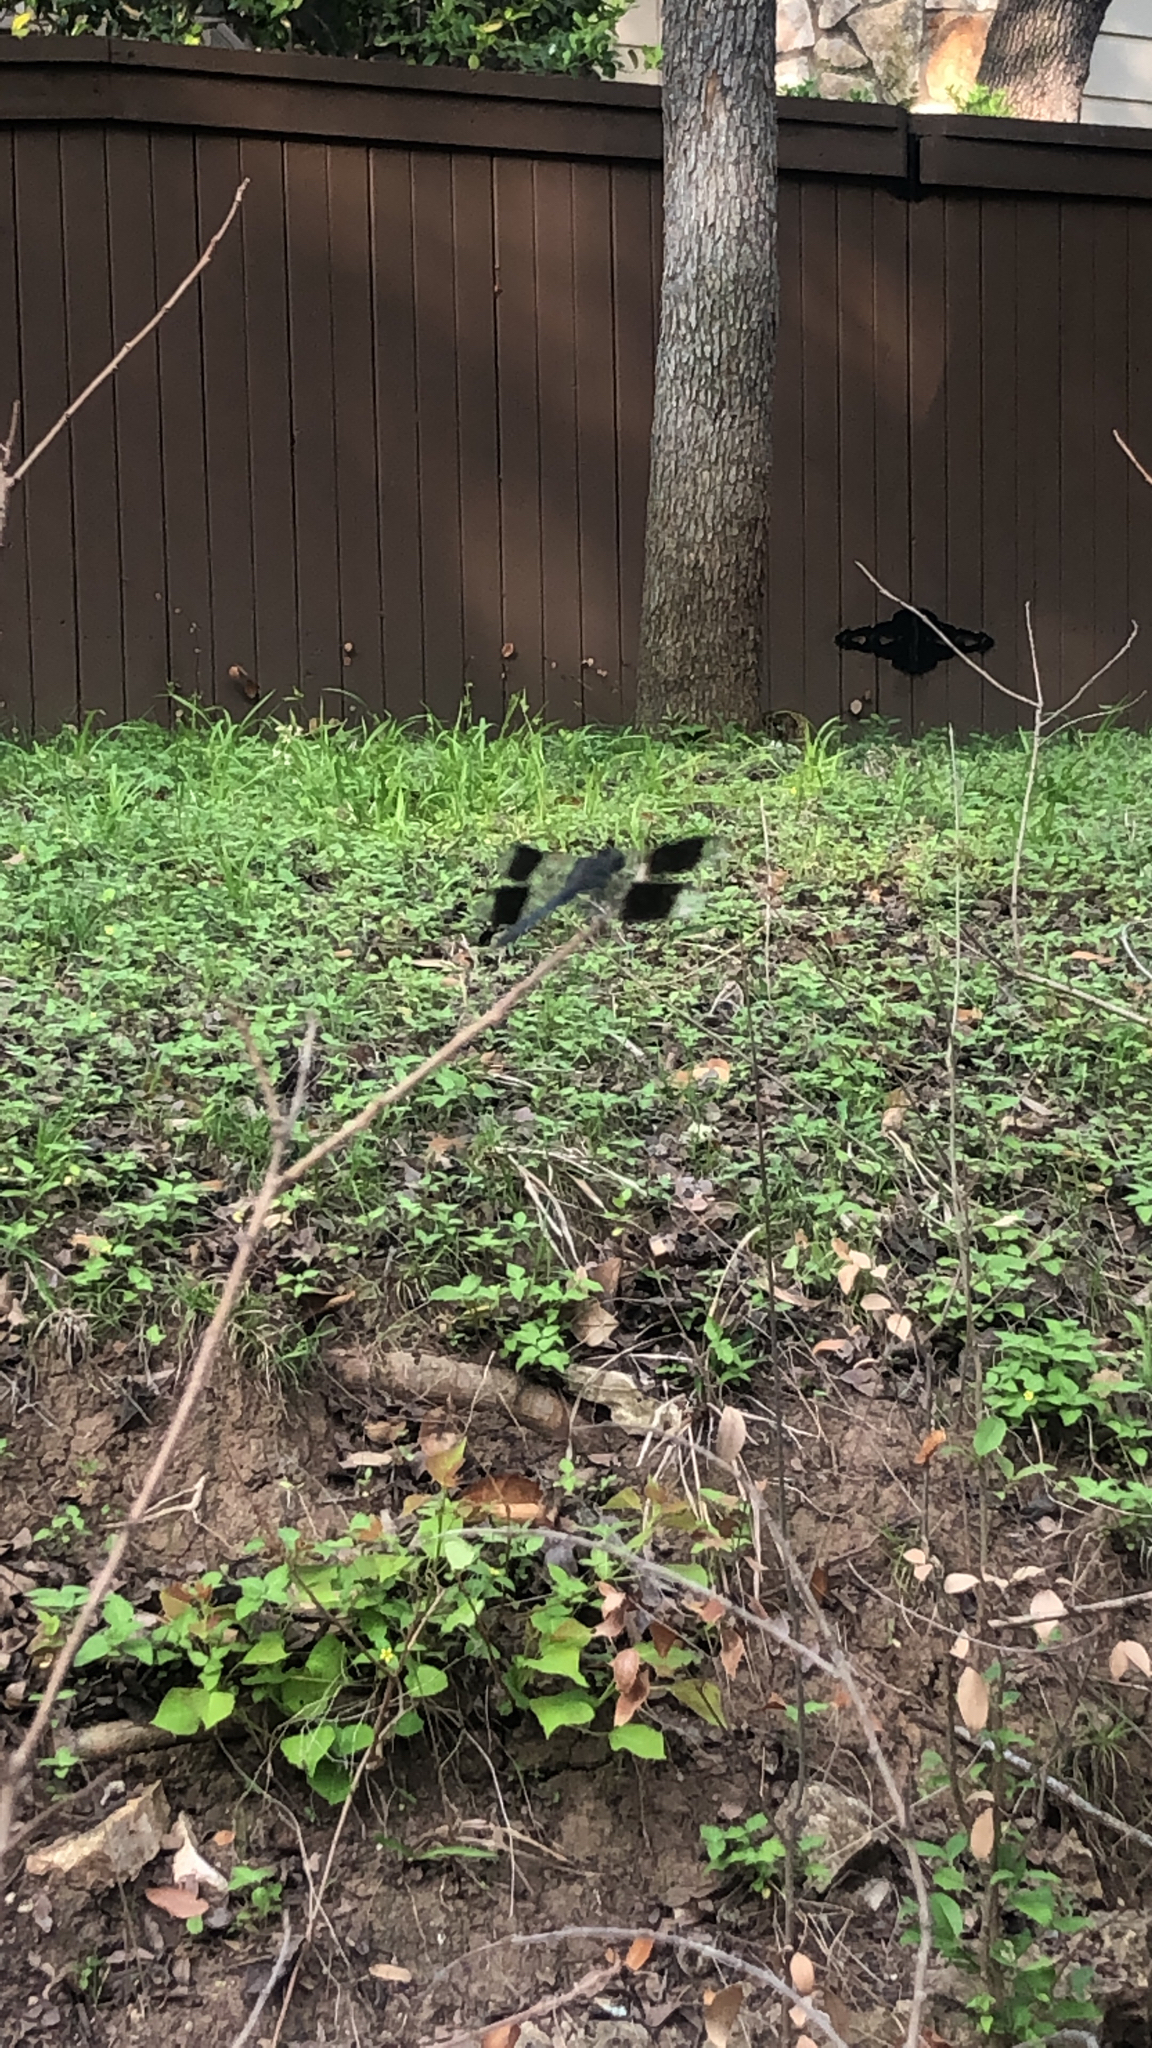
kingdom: Animalia
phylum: Arthropoda
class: Insecta
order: Odonata
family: Libellulidae
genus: Erythrodiplax
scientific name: Erythrodiplax umbrata
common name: Band-winged dragonlet
